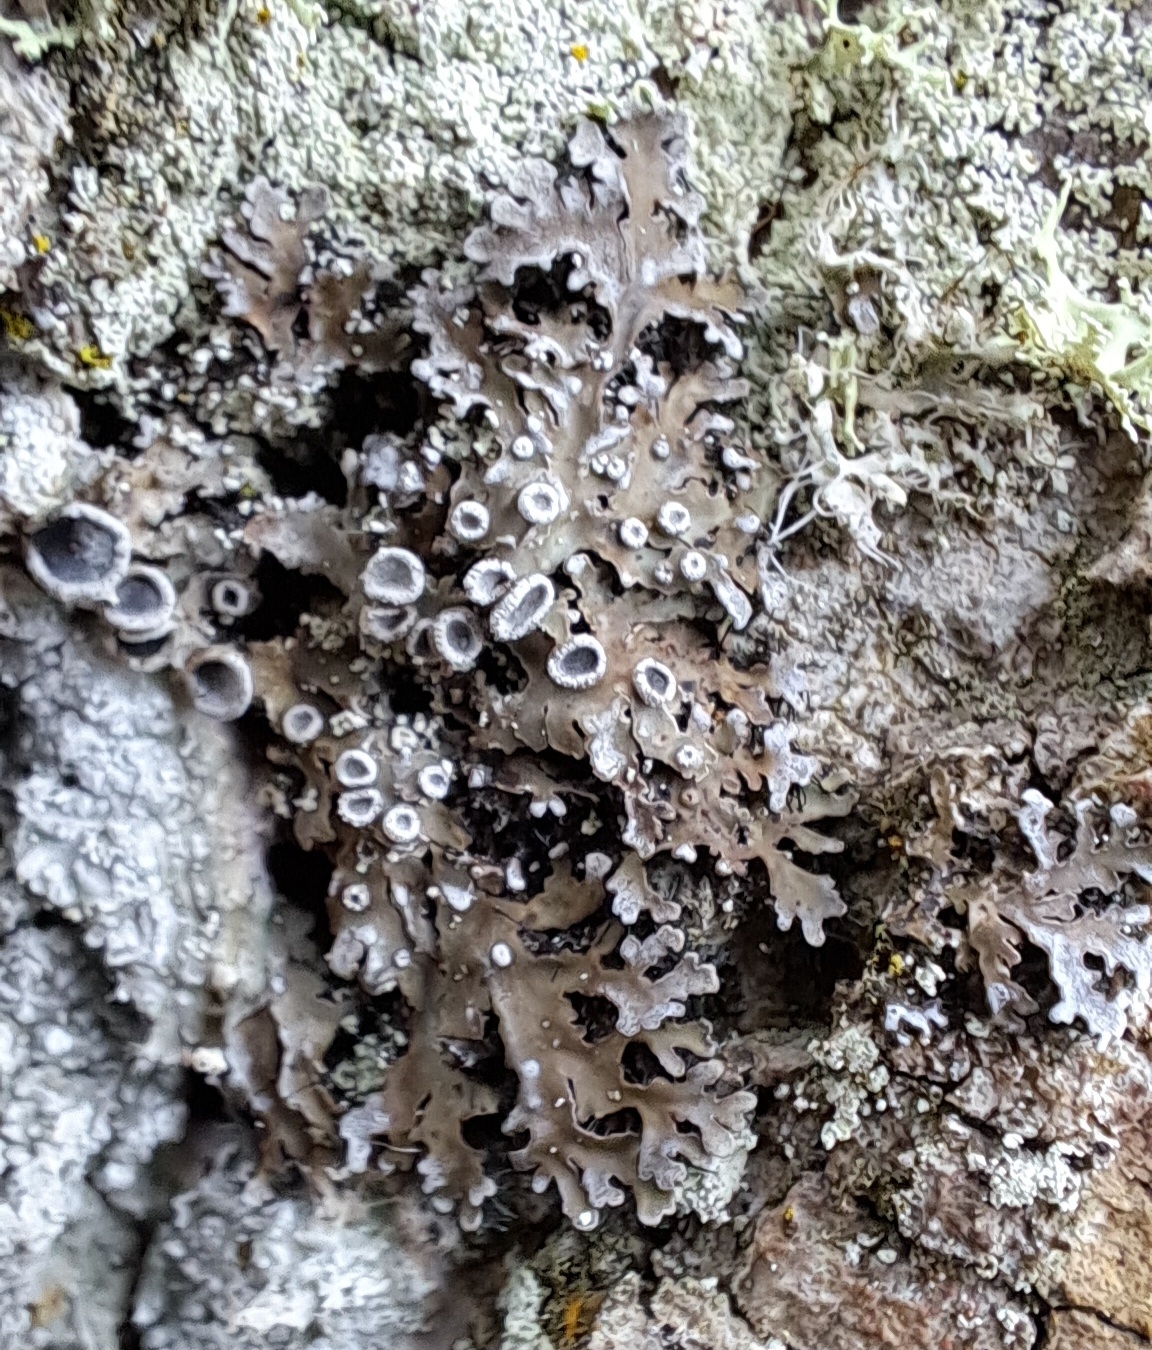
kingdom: Fungi
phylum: Ascomycota
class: Lecanoromycetes
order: Caliciales
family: Physciaceae
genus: Physconia
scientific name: Physconia distorta
